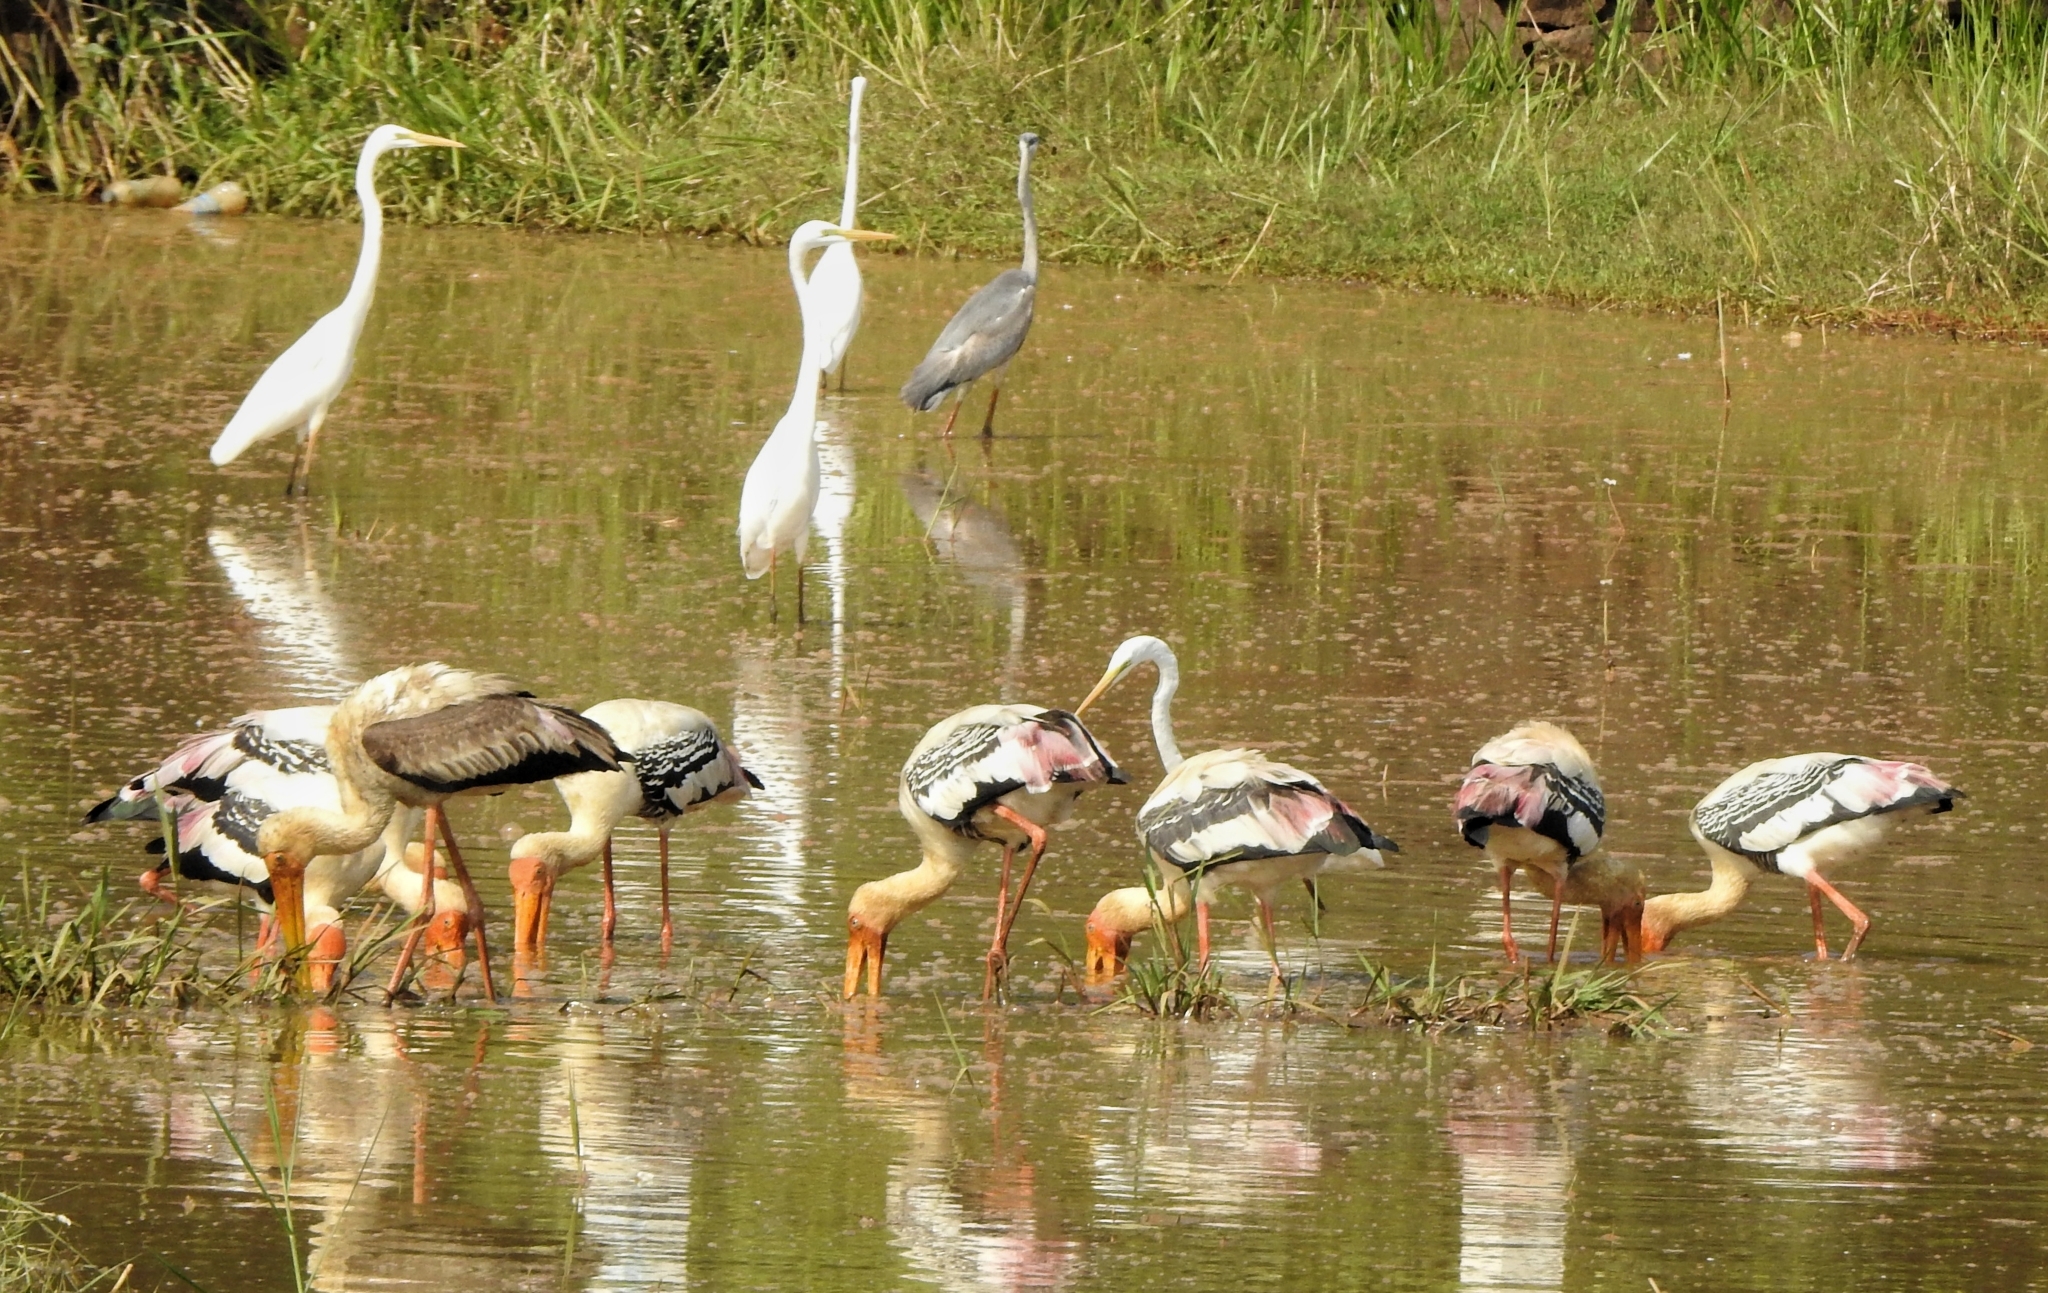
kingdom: Animalia
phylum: Chordata
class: Aves
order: Ciconiiformes
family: Ciconiidae
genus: Mycteria
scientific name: Mycteria leucocephala
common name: Painted stork
